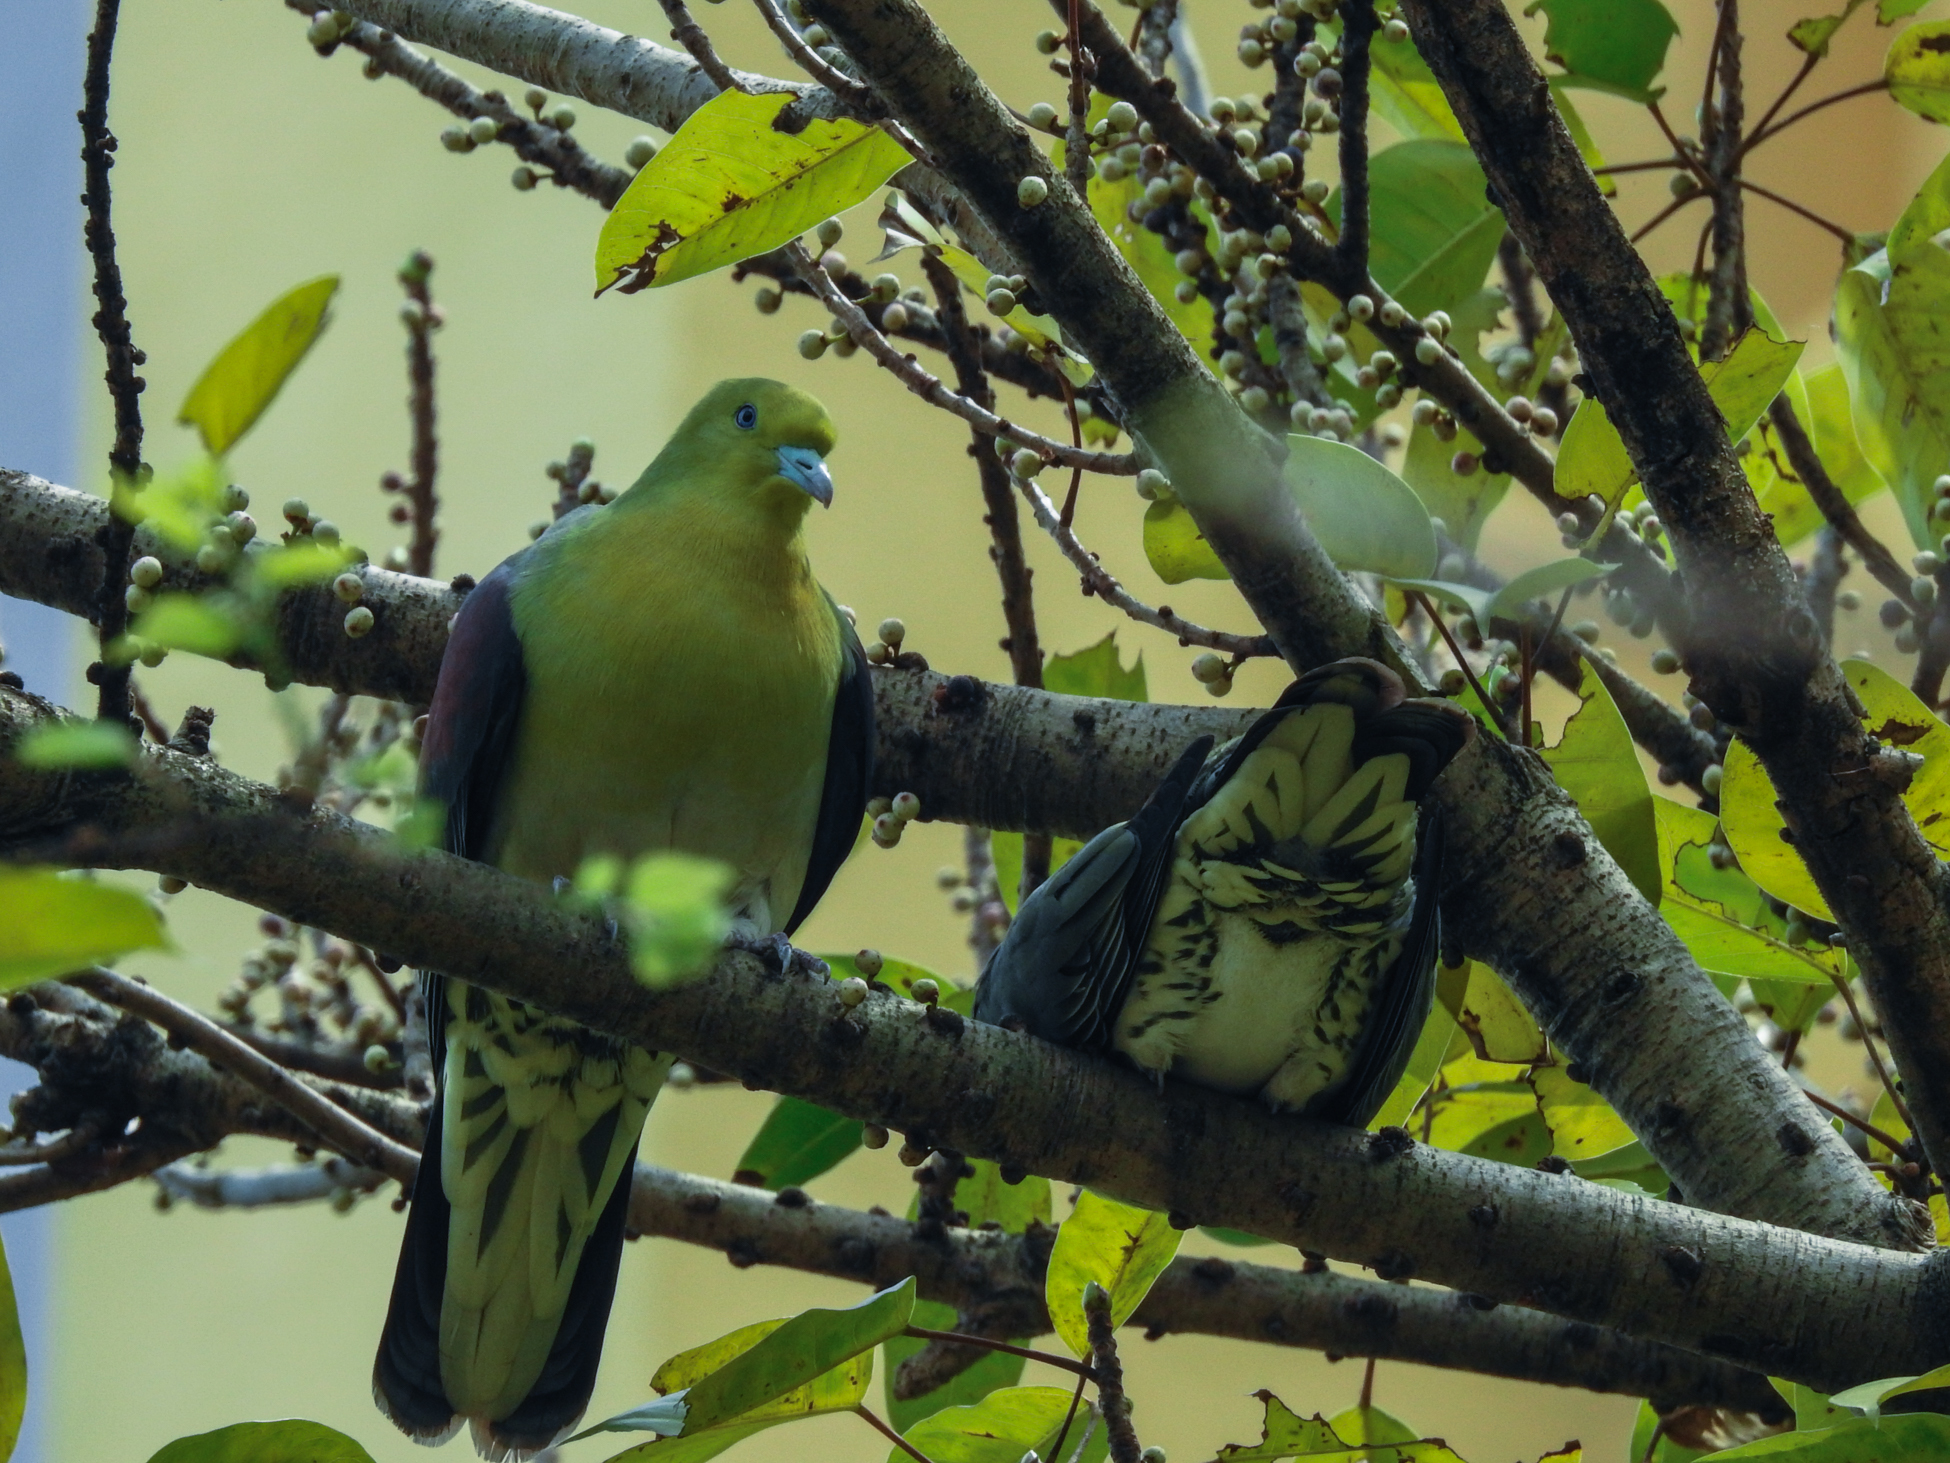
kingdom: Animalia
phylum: Chordata
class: Aves
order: Columbiformes
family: Columbidae
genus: Treron
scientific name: Treron sieboldii
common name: White-bellied green pigeon
